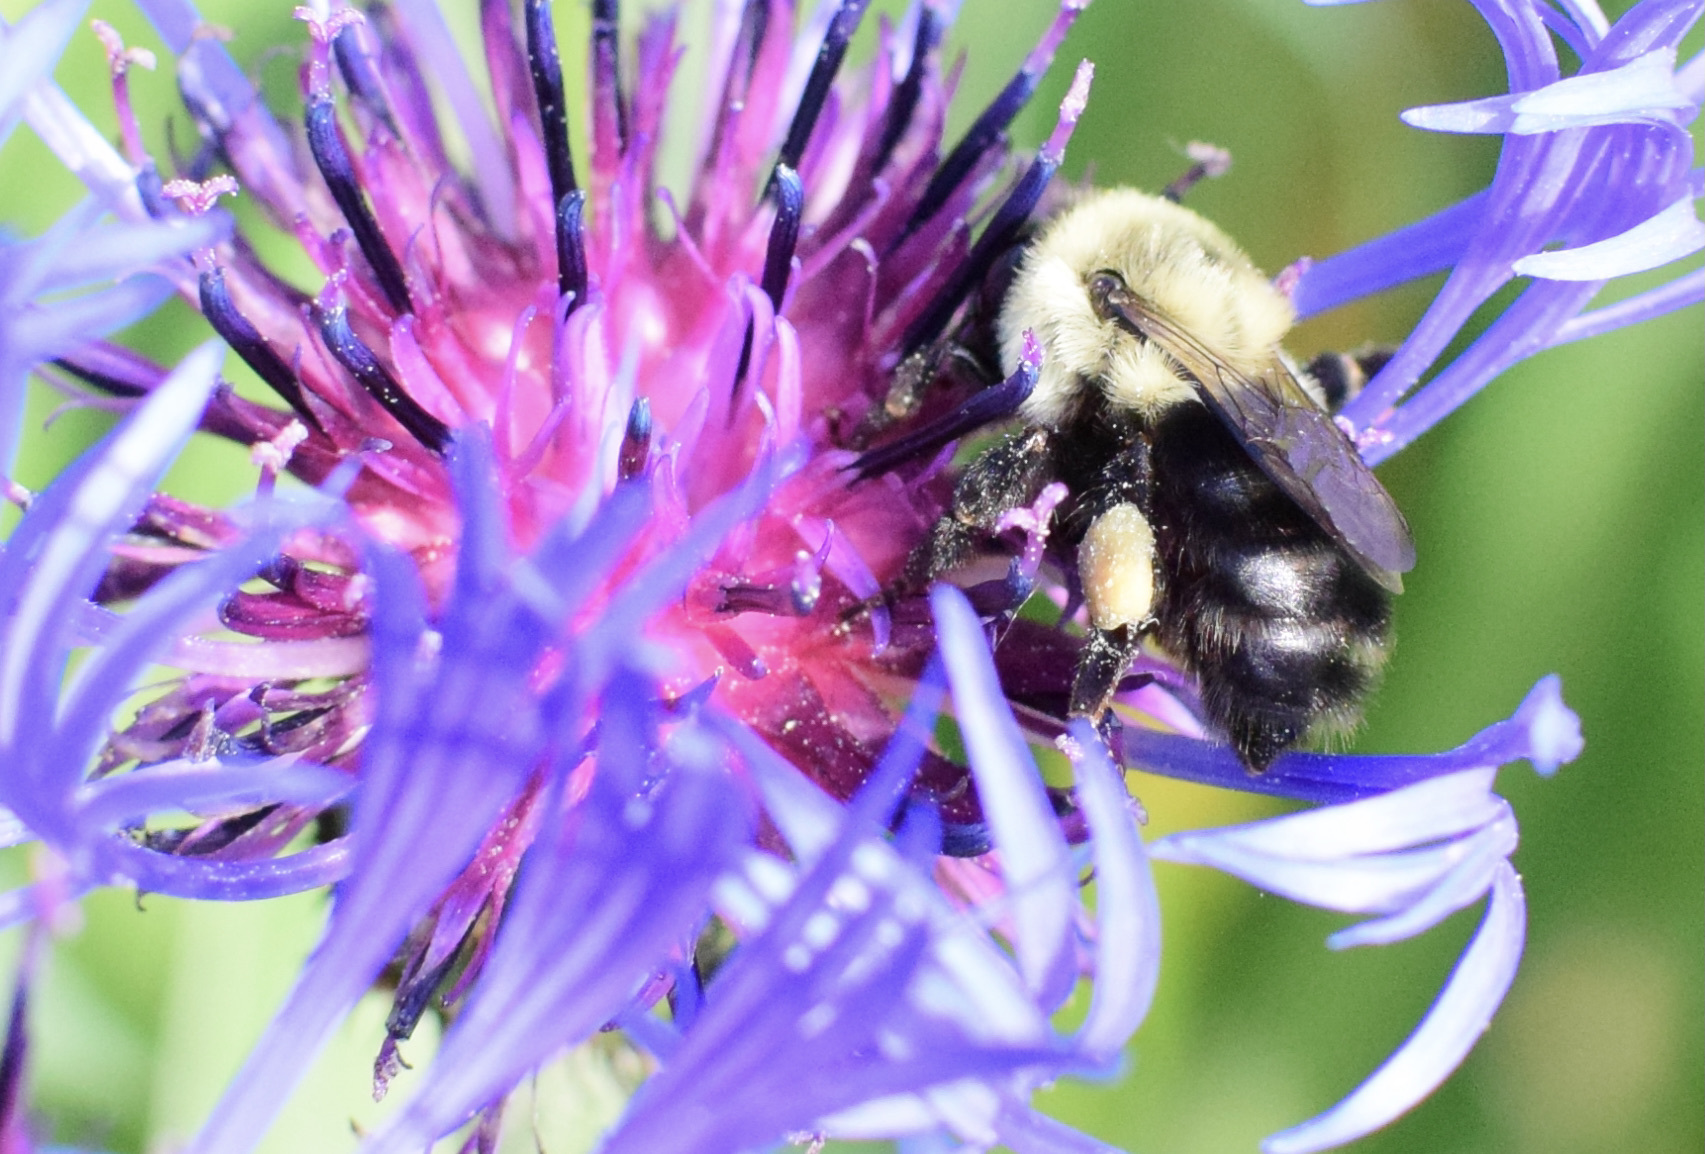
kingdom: Animalia
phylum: Arthropoda
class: Insecta
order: Hymenoptera
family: Apidae
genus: Bombus
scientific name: Bombus impatiens
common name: Common eastern bumble bee
